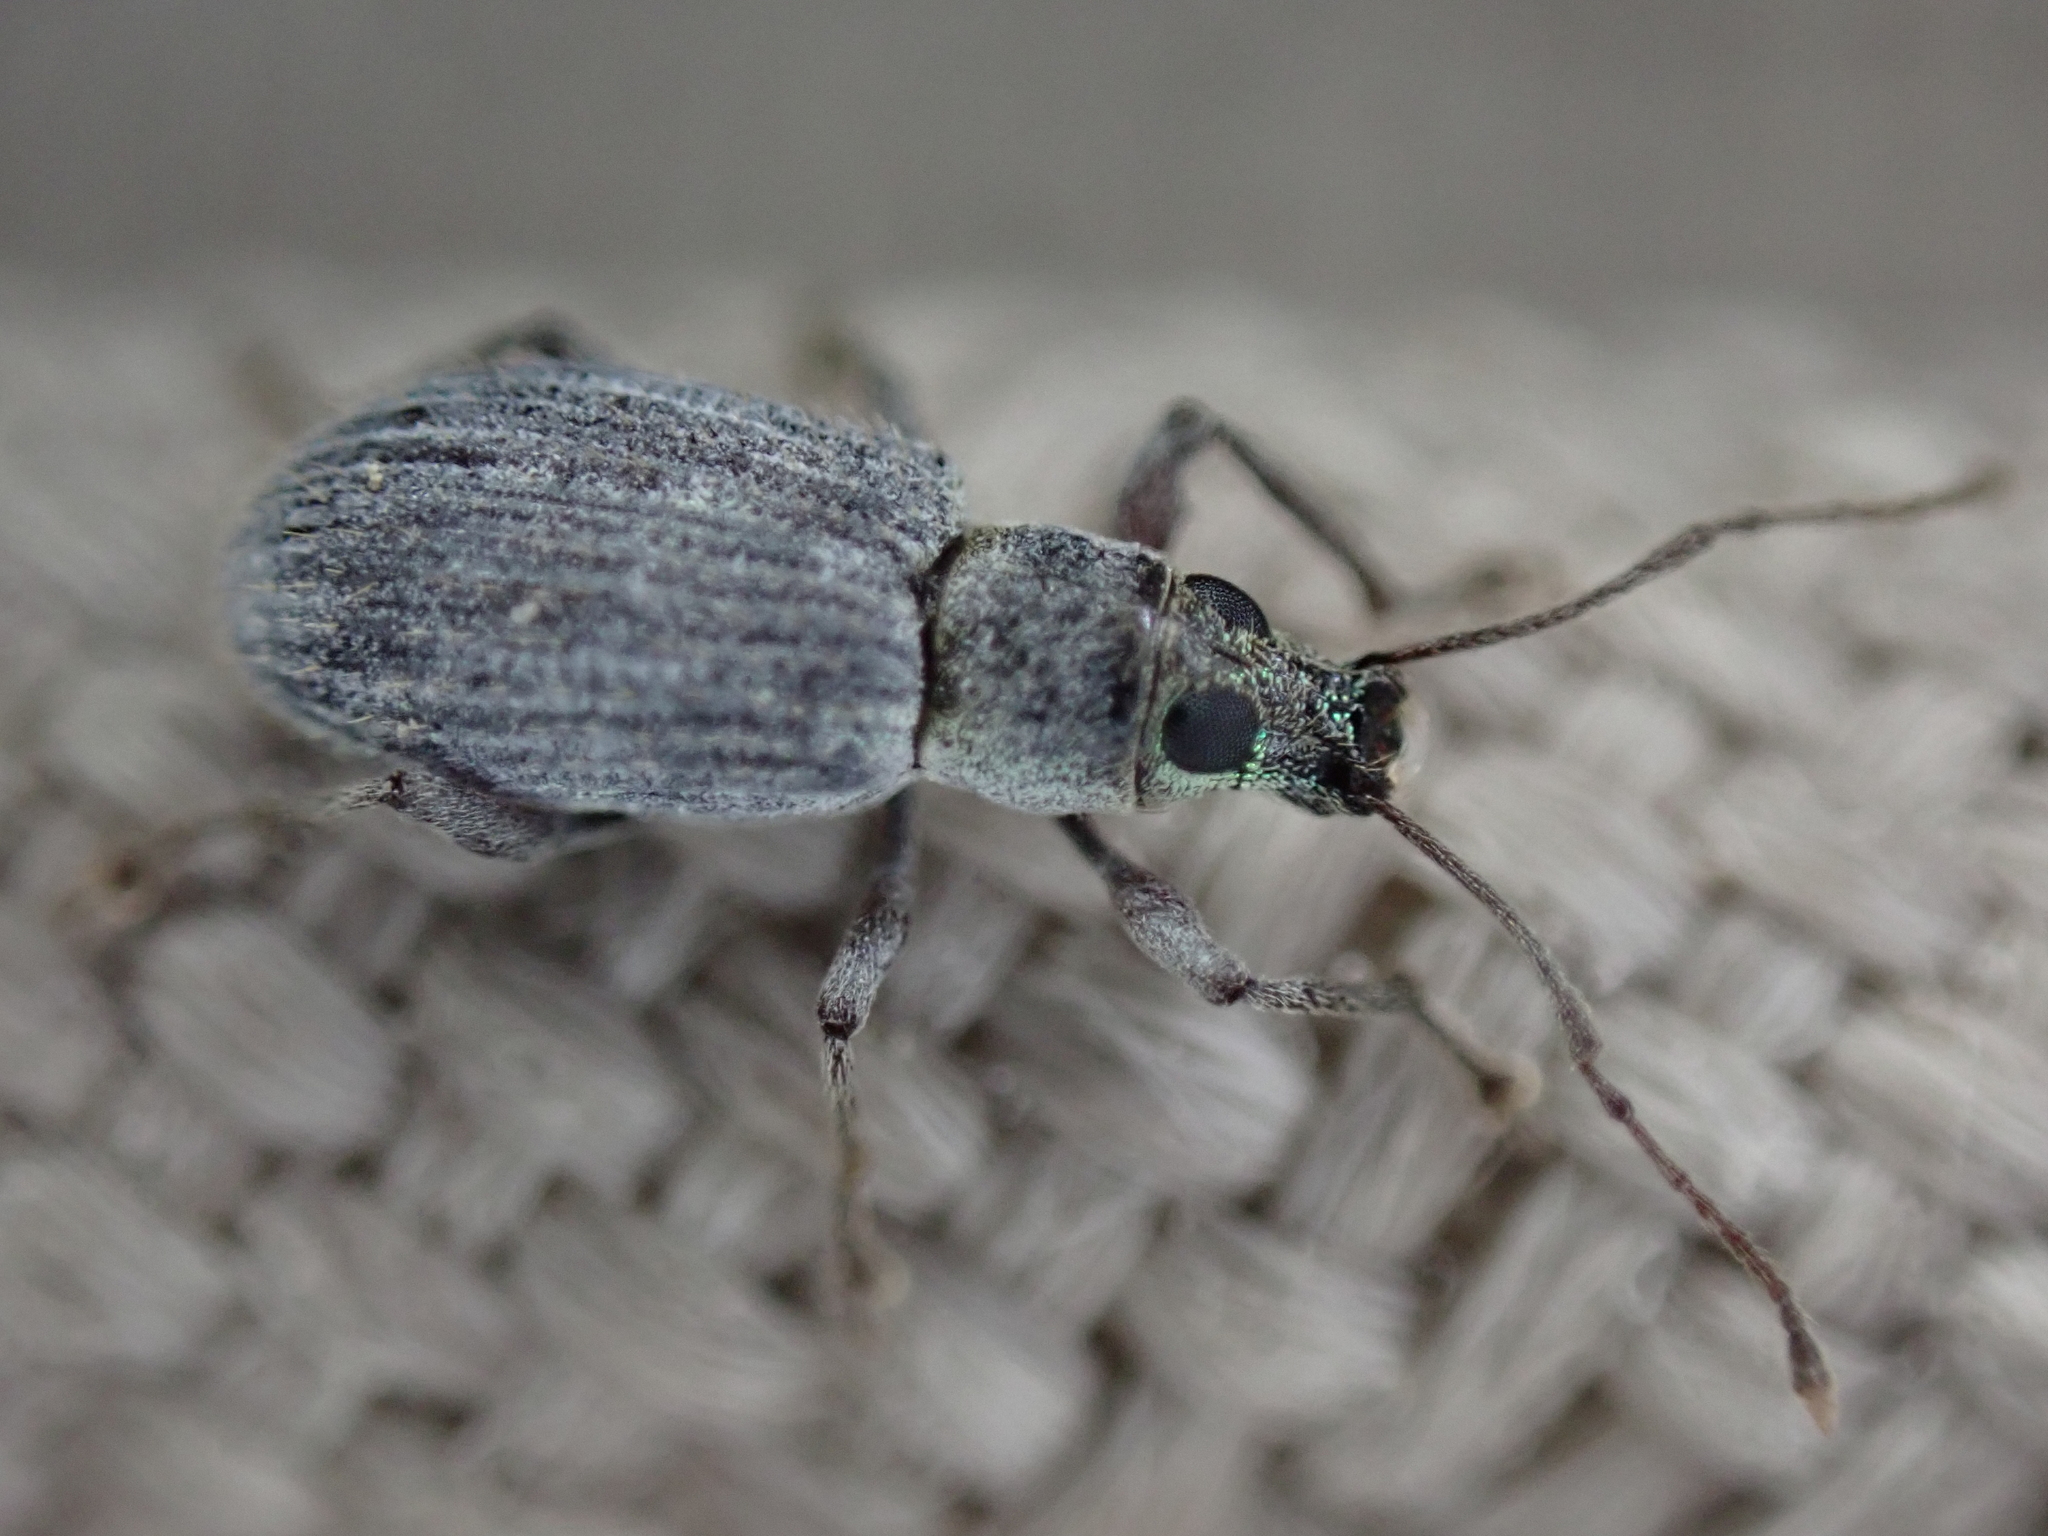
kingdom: Animalia
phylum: Arthropoda
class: Insecta
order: Coleoptera
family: Curculionidae
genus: Cyrtepistomus
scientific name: Cyrtepistomus castaneus
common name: Weevil
